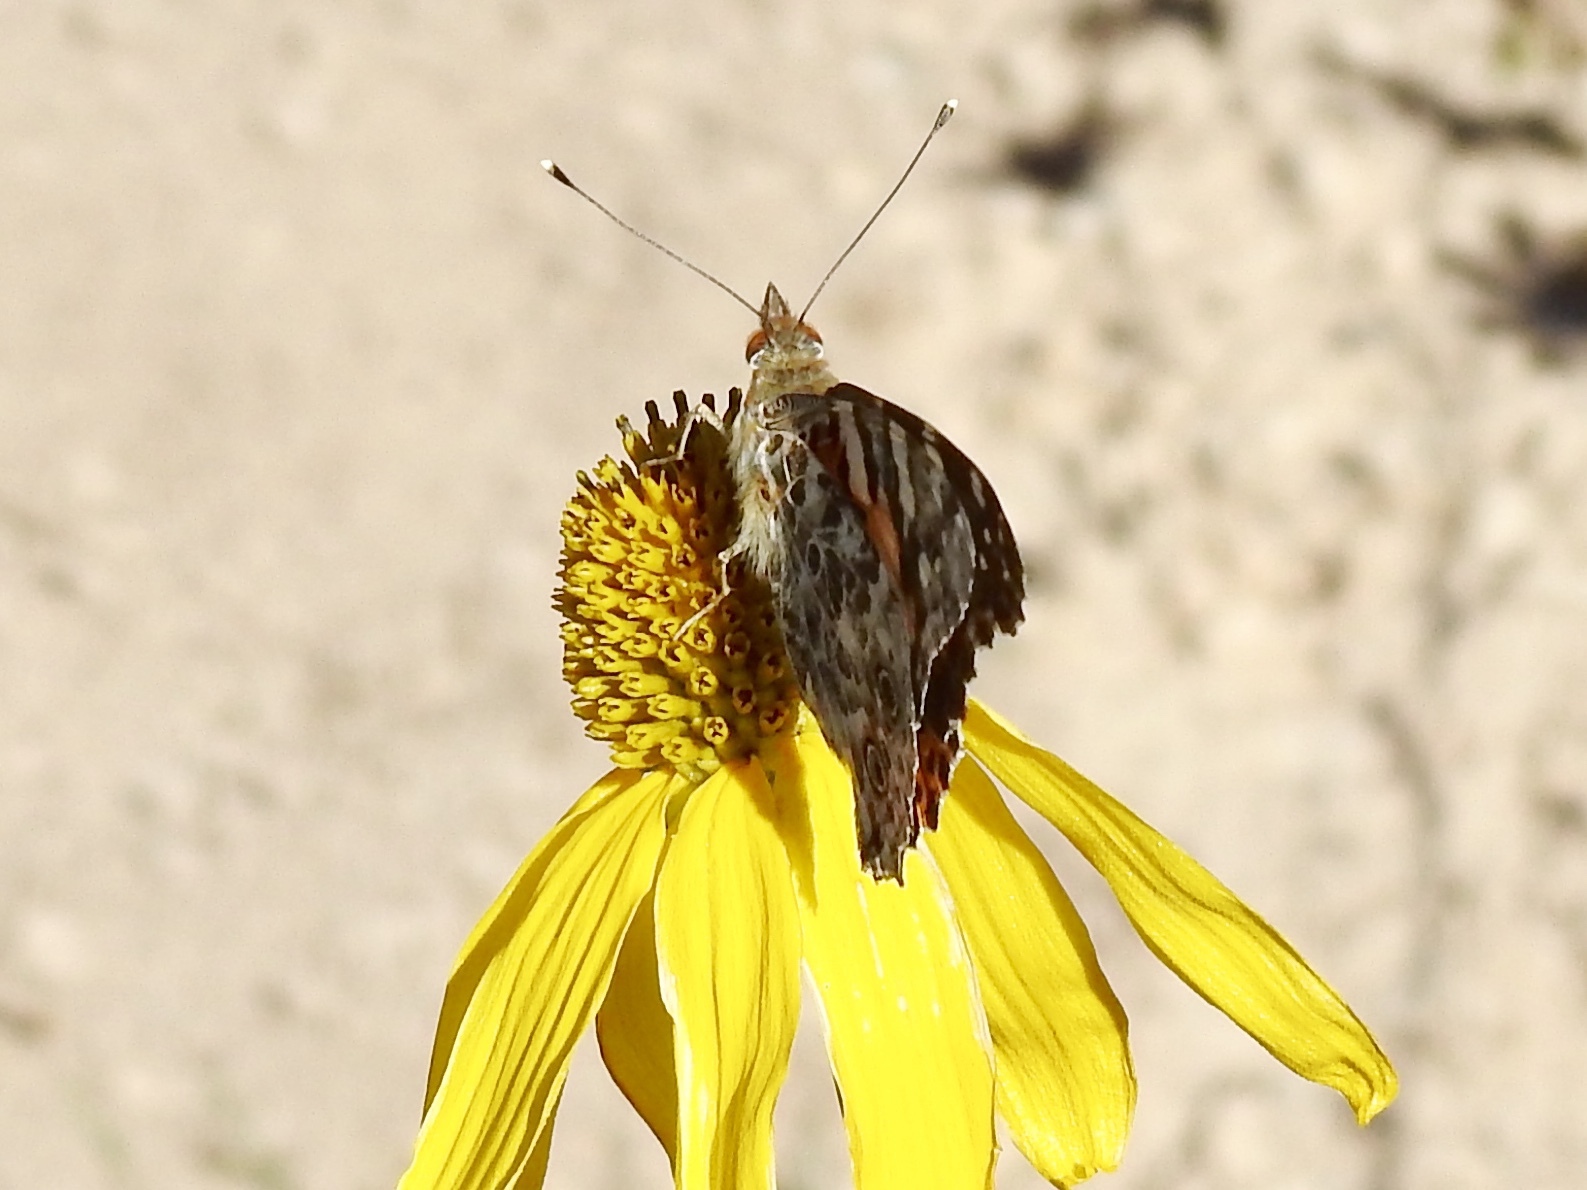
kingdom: Animalia
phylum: Arthropoda
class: Insecta
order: Lepidoptera
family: Nymphalidae
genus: Vanessa
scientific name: Vanessa cardui
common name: Painted lady
